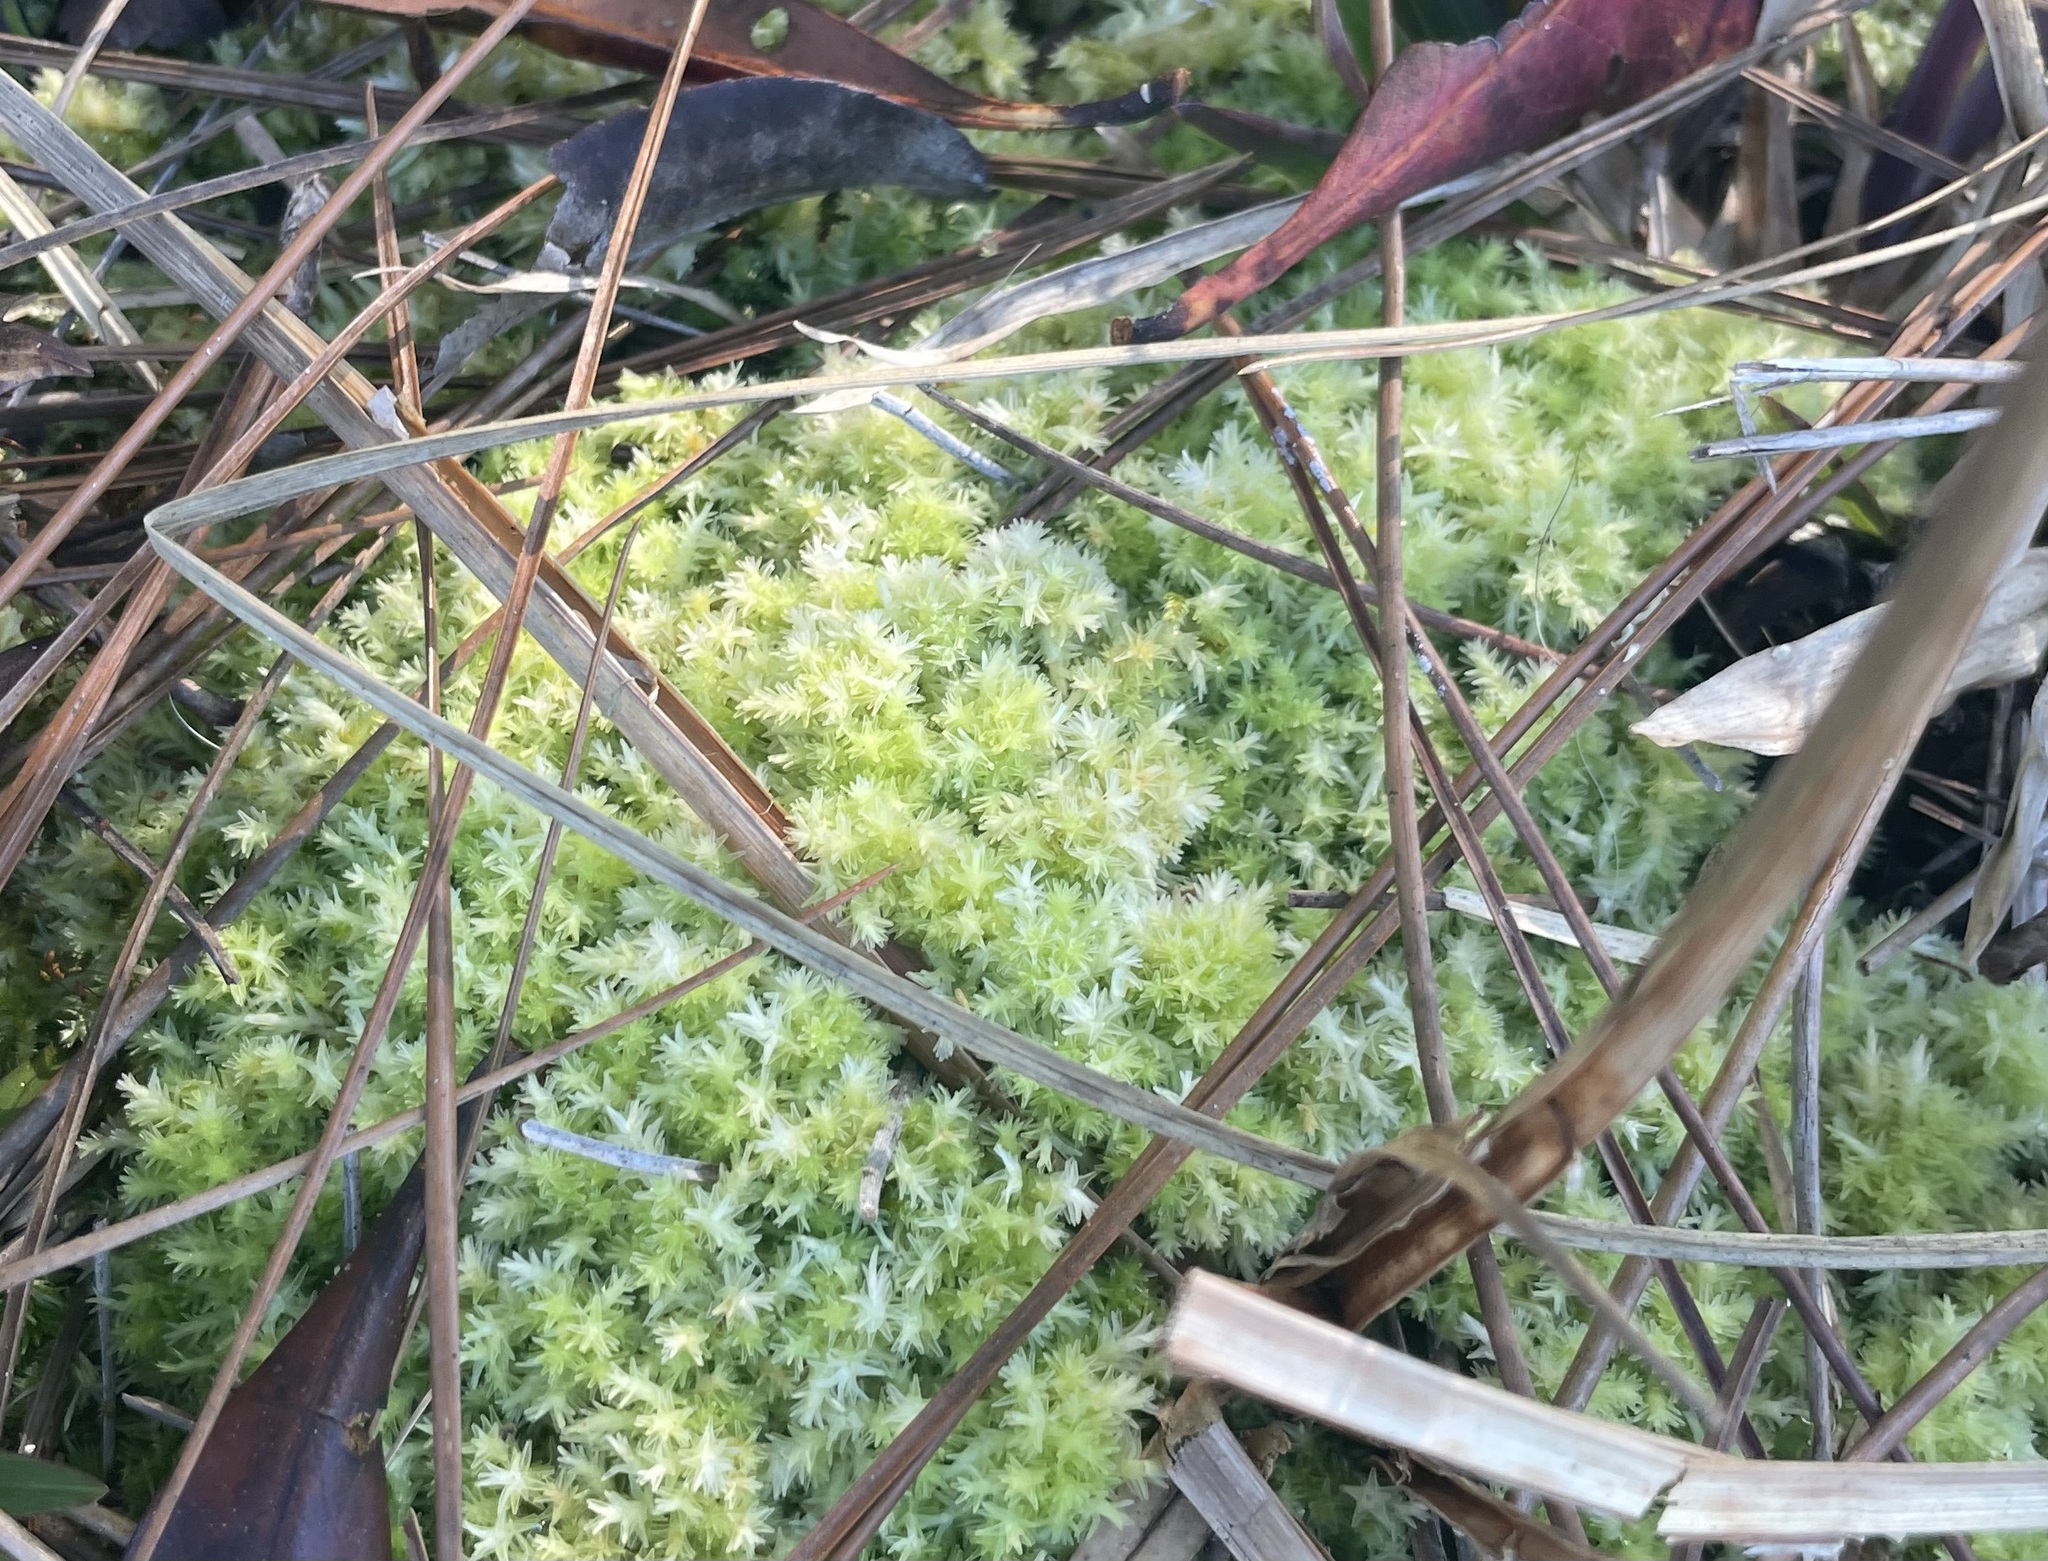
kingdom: Plantae
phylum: Bryophyta
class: Sphagnopsida
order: Sphagnales
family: Sphagnaceae
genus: Sphagnum
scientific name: Sphagnum strictum
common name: Pale bog-moss
